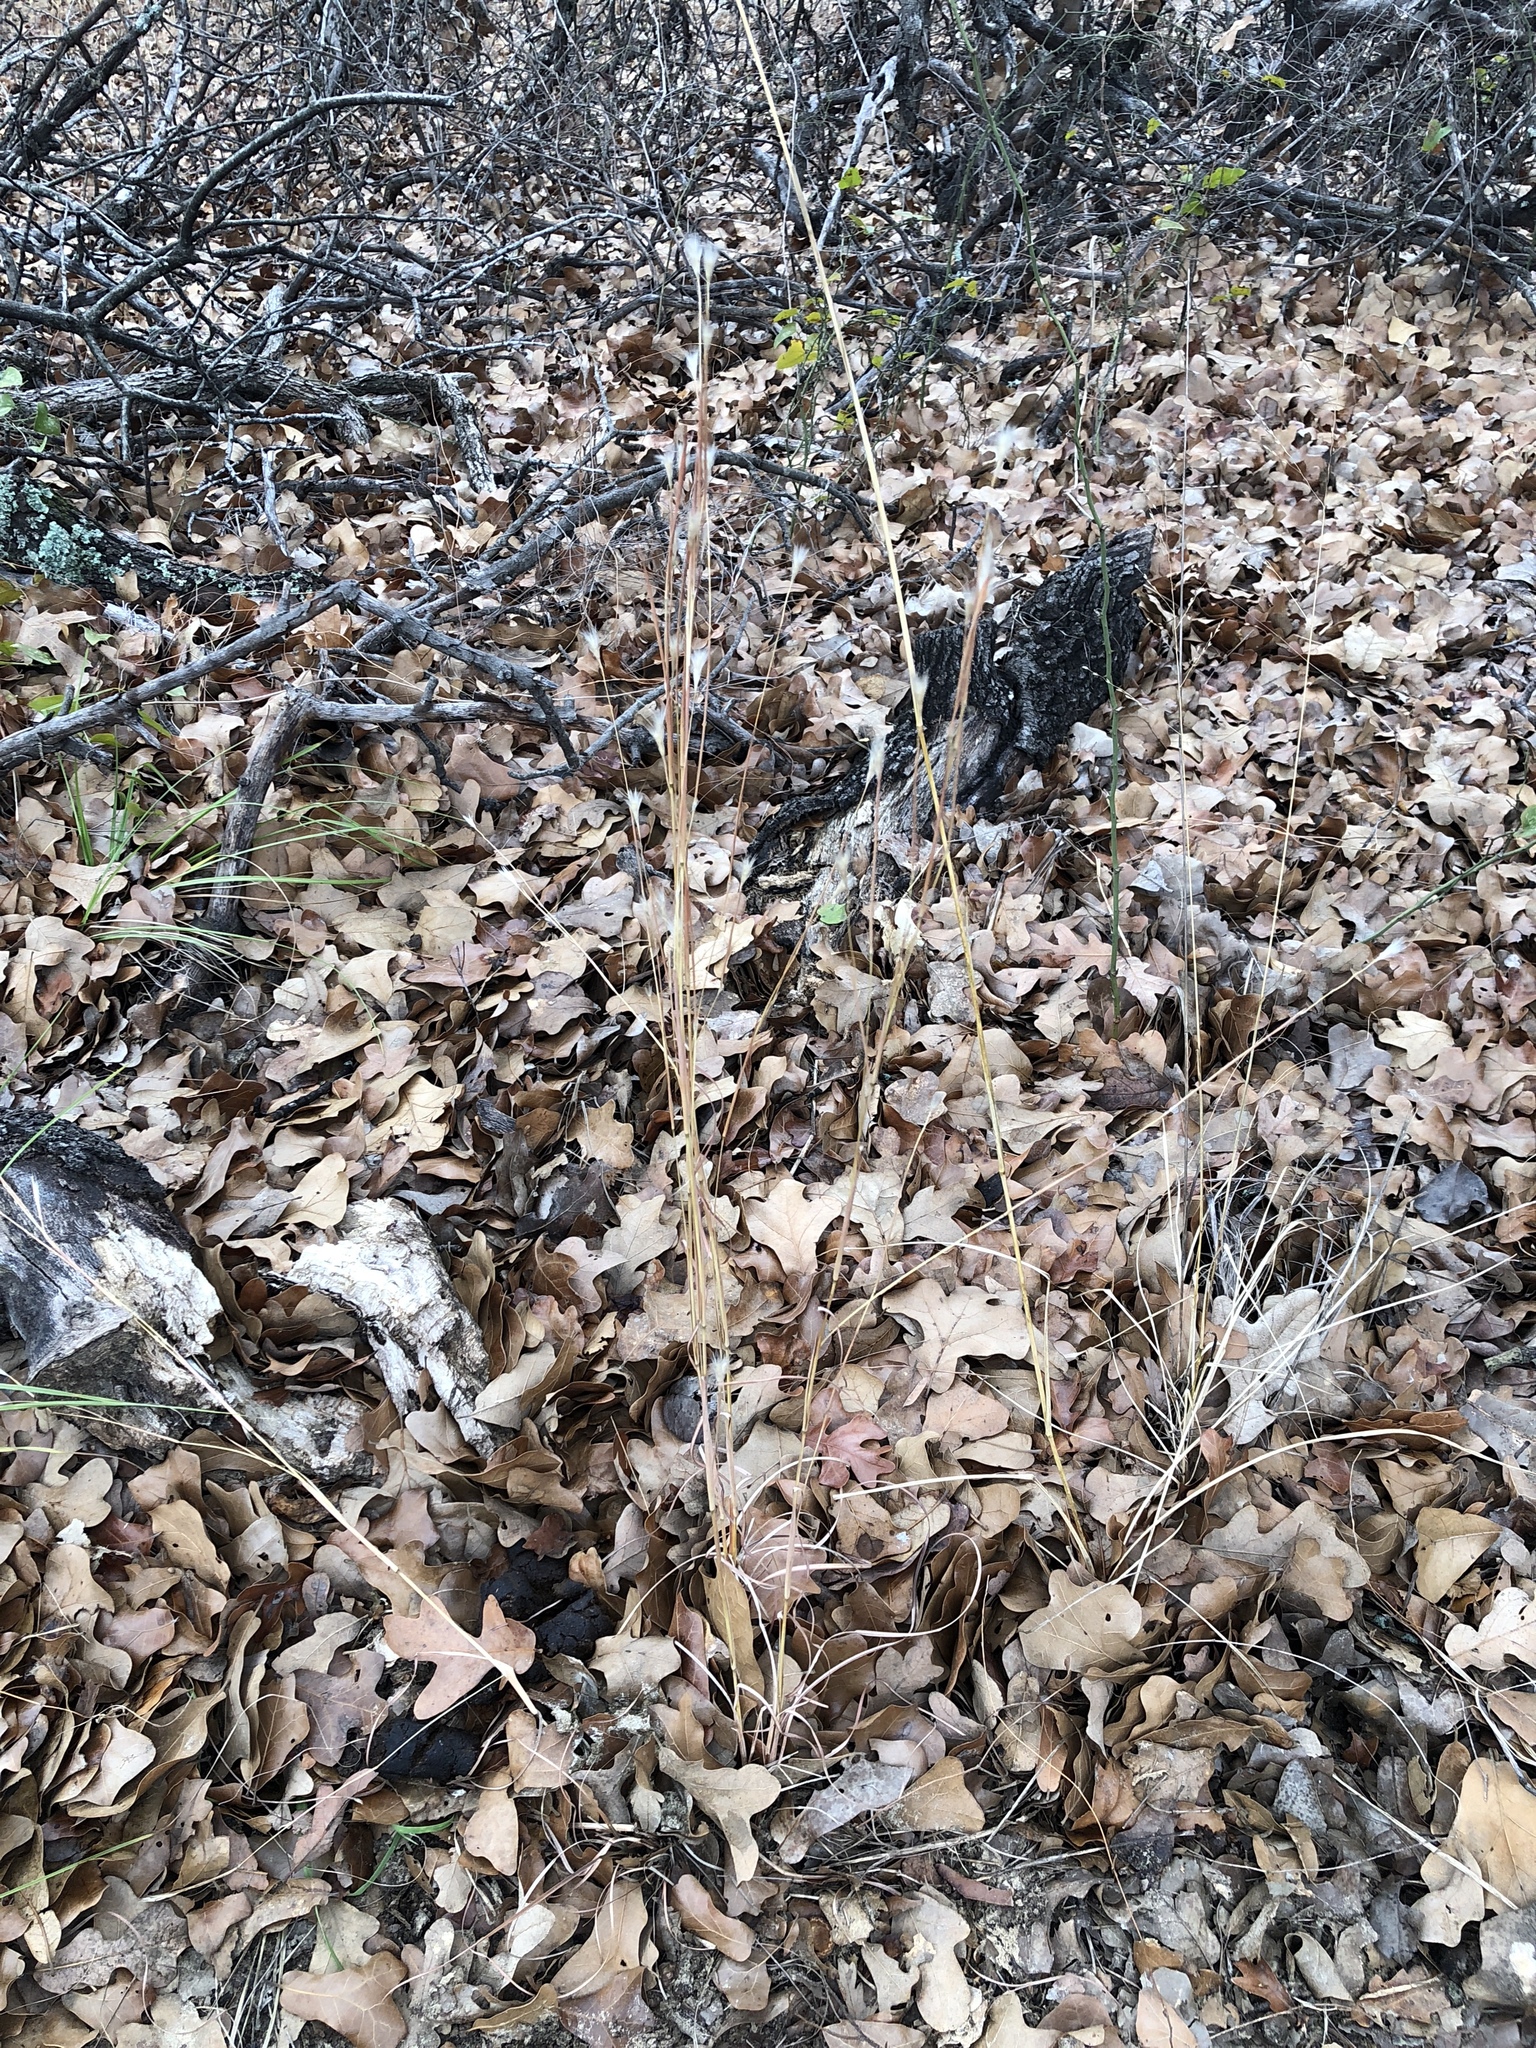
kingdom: Plantae
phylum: Tracheophyta
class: Liliopsida
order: Poales
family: Poaceae
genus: Andropogon
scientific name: Andropogon ternarius
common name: Split bluestem
